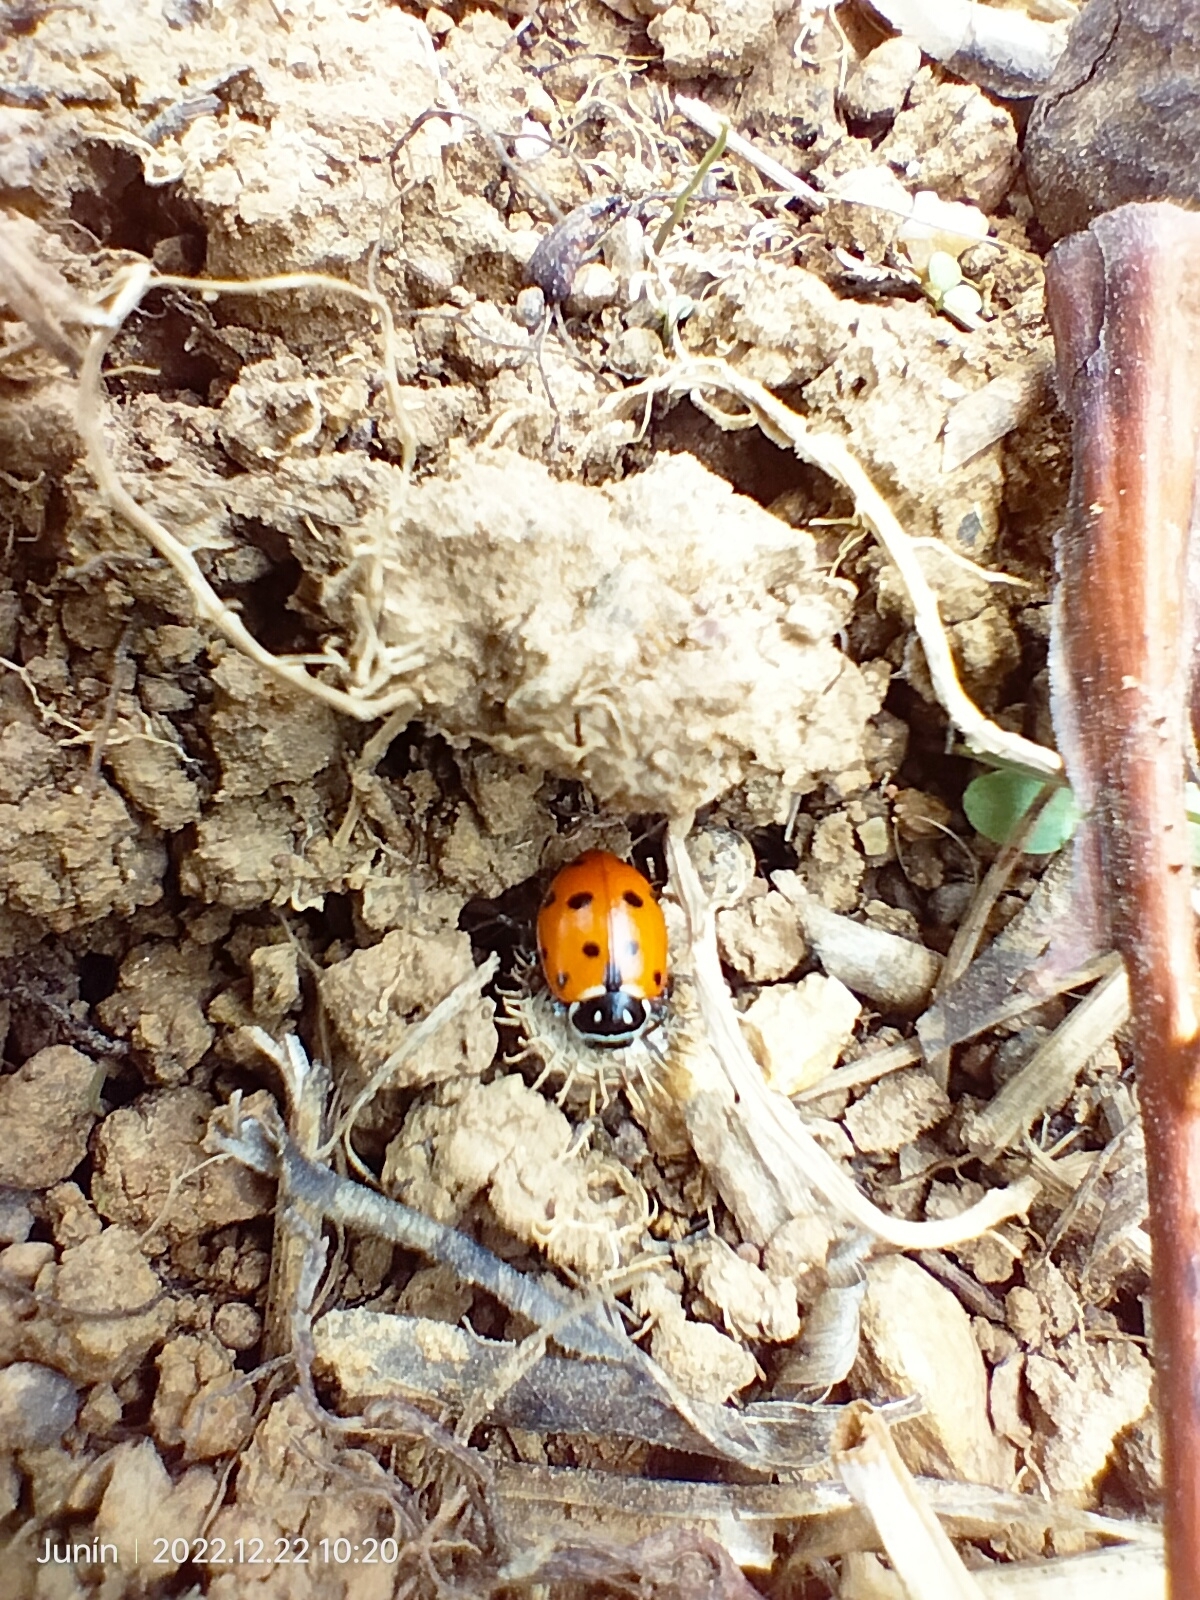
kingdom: Animalia
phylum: Arthropoda
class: Insecta
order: Coleoptera
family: Coccinellidae
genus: Hippodamia
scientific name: Hippodamia convergens
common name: Convergent lady beetle
